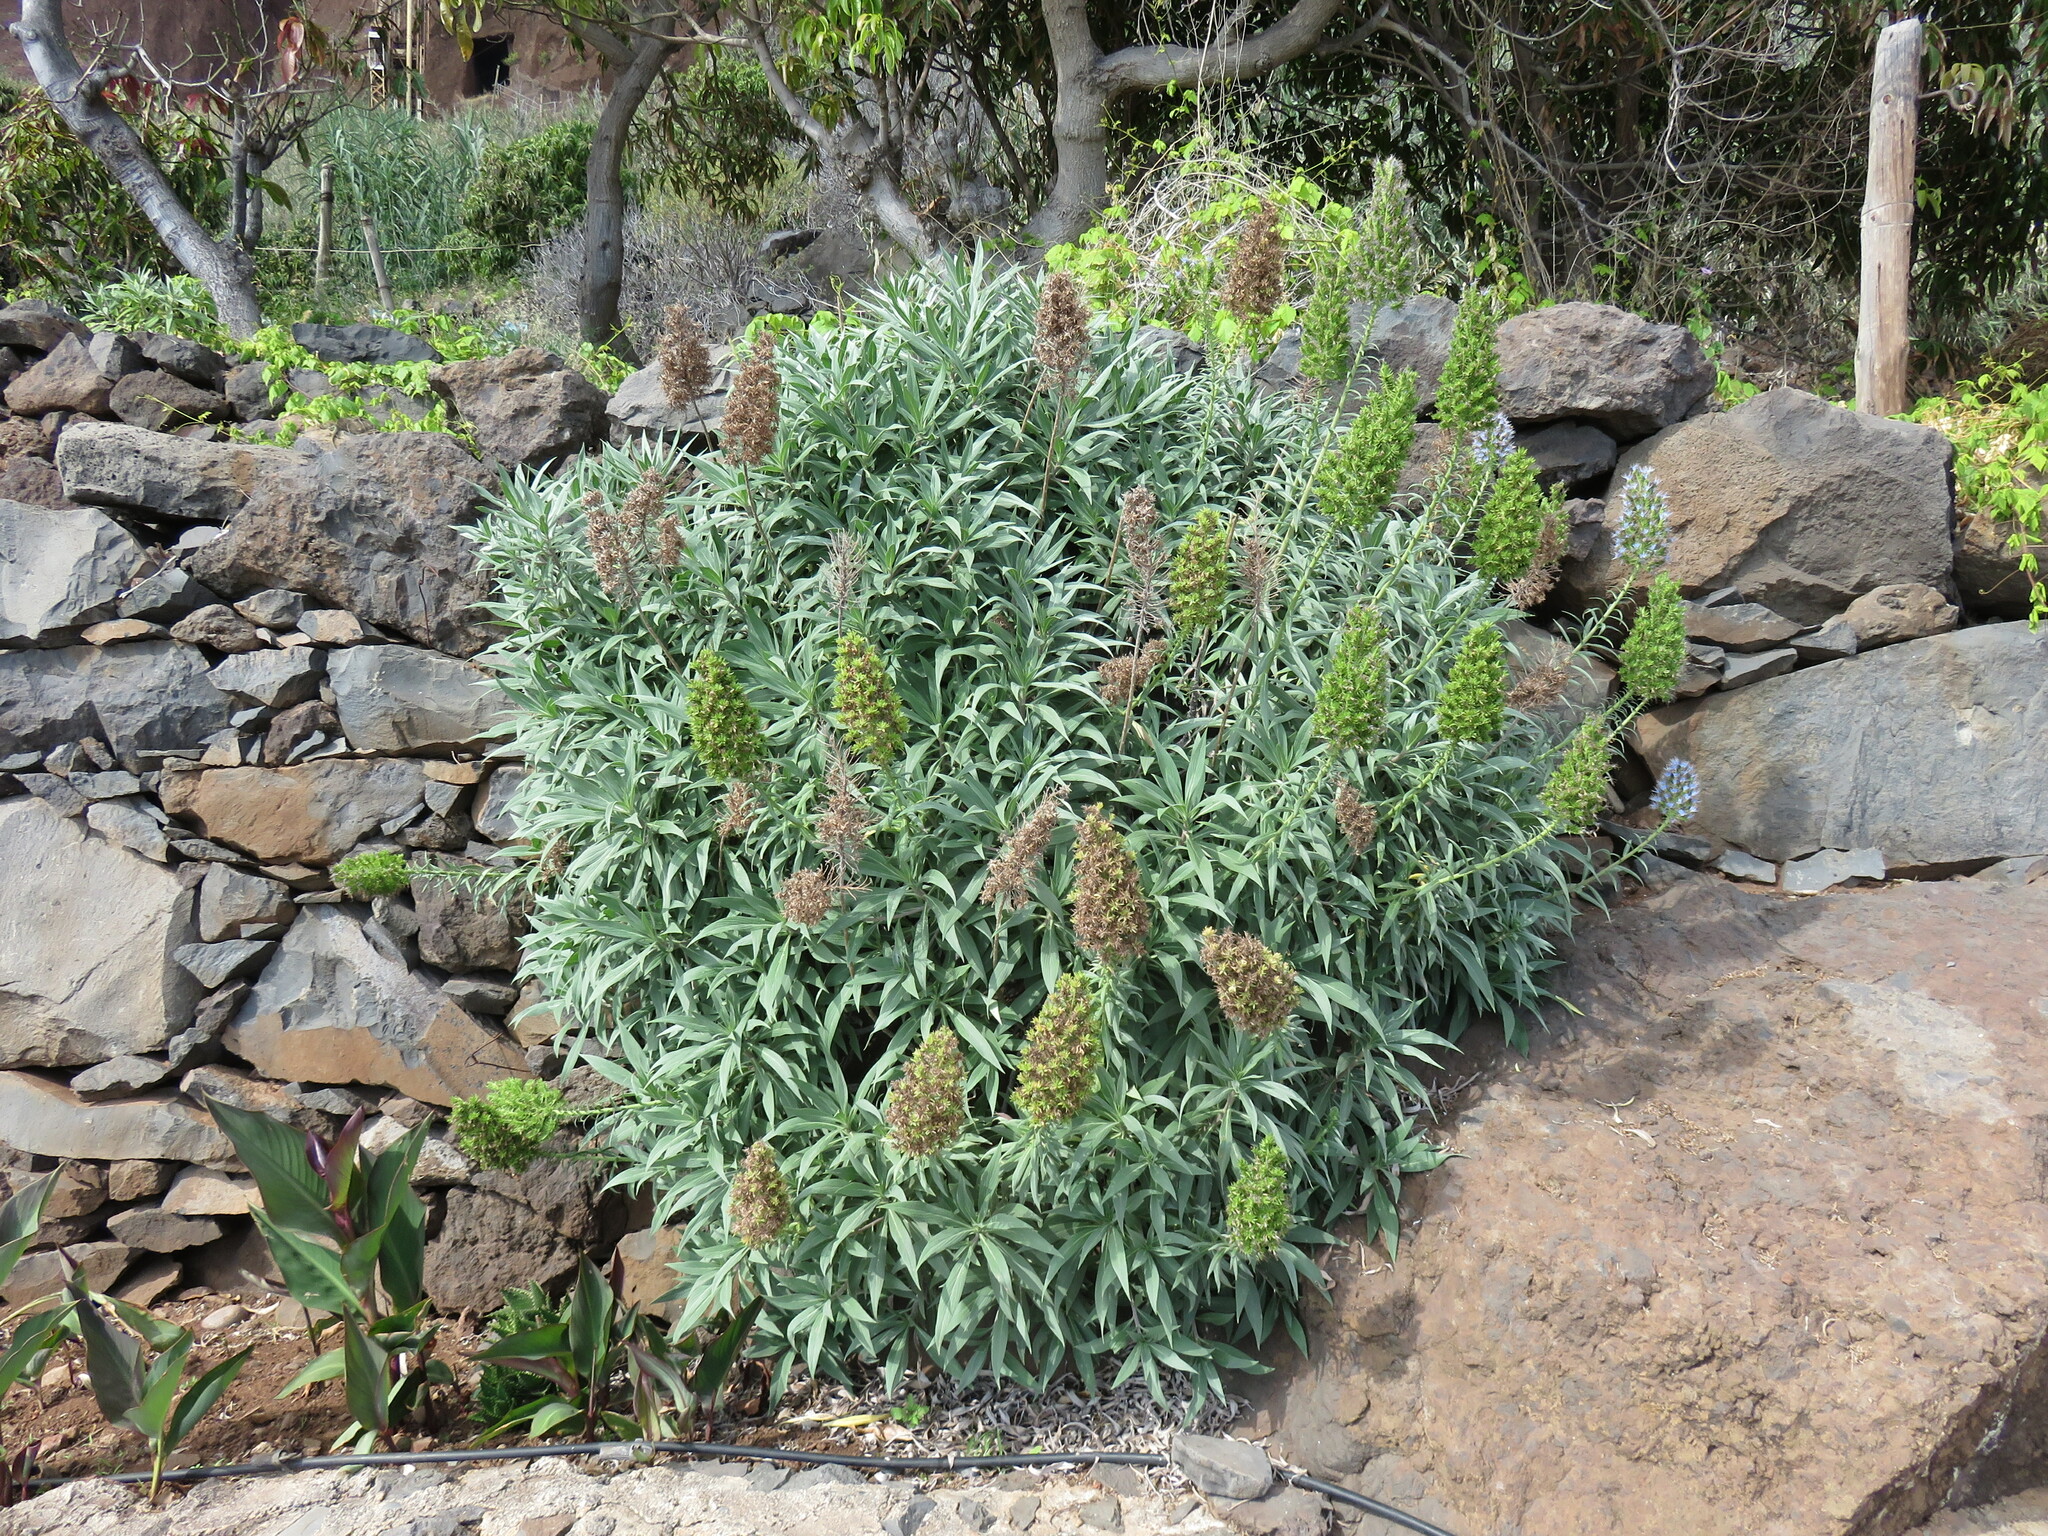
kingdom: Plantae
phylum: Tracheophyta
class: Magnoliopsida
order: Boraginales
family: Boraginaceae
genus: Echium
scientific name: Echium nervosum
